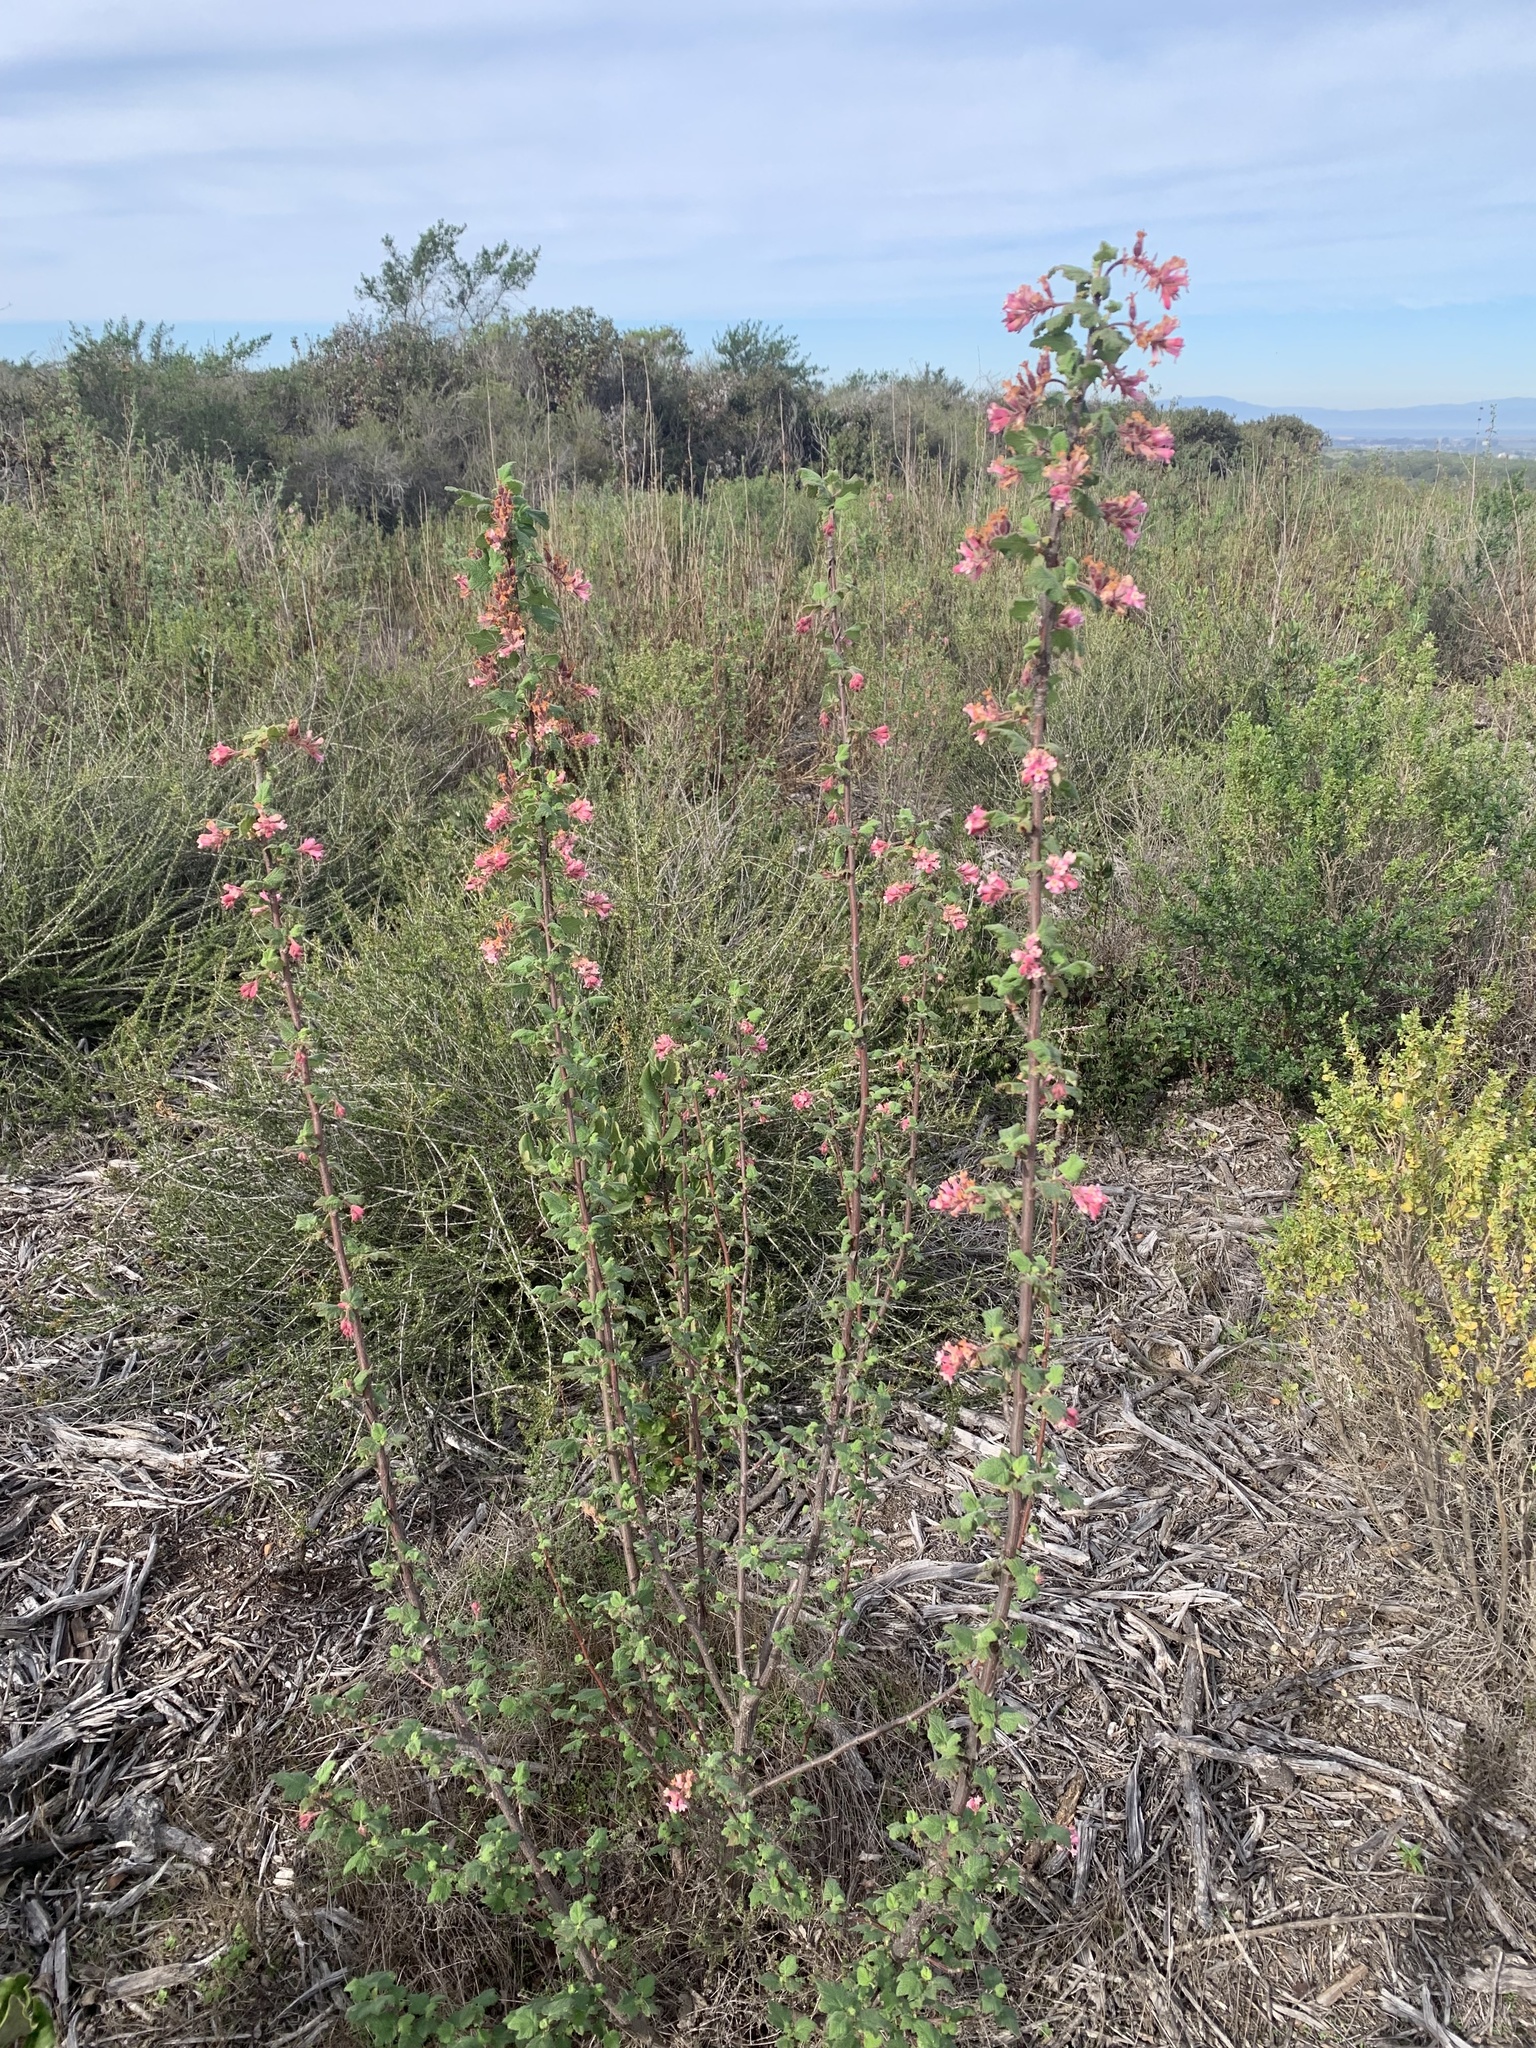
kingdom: Plantae
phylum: Tracheophyta
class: Magnoliopsida
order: Saxifragales
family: Grossulariaceae
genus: Ribes
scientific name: Ribes malvaceum
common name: Chaparral currant
